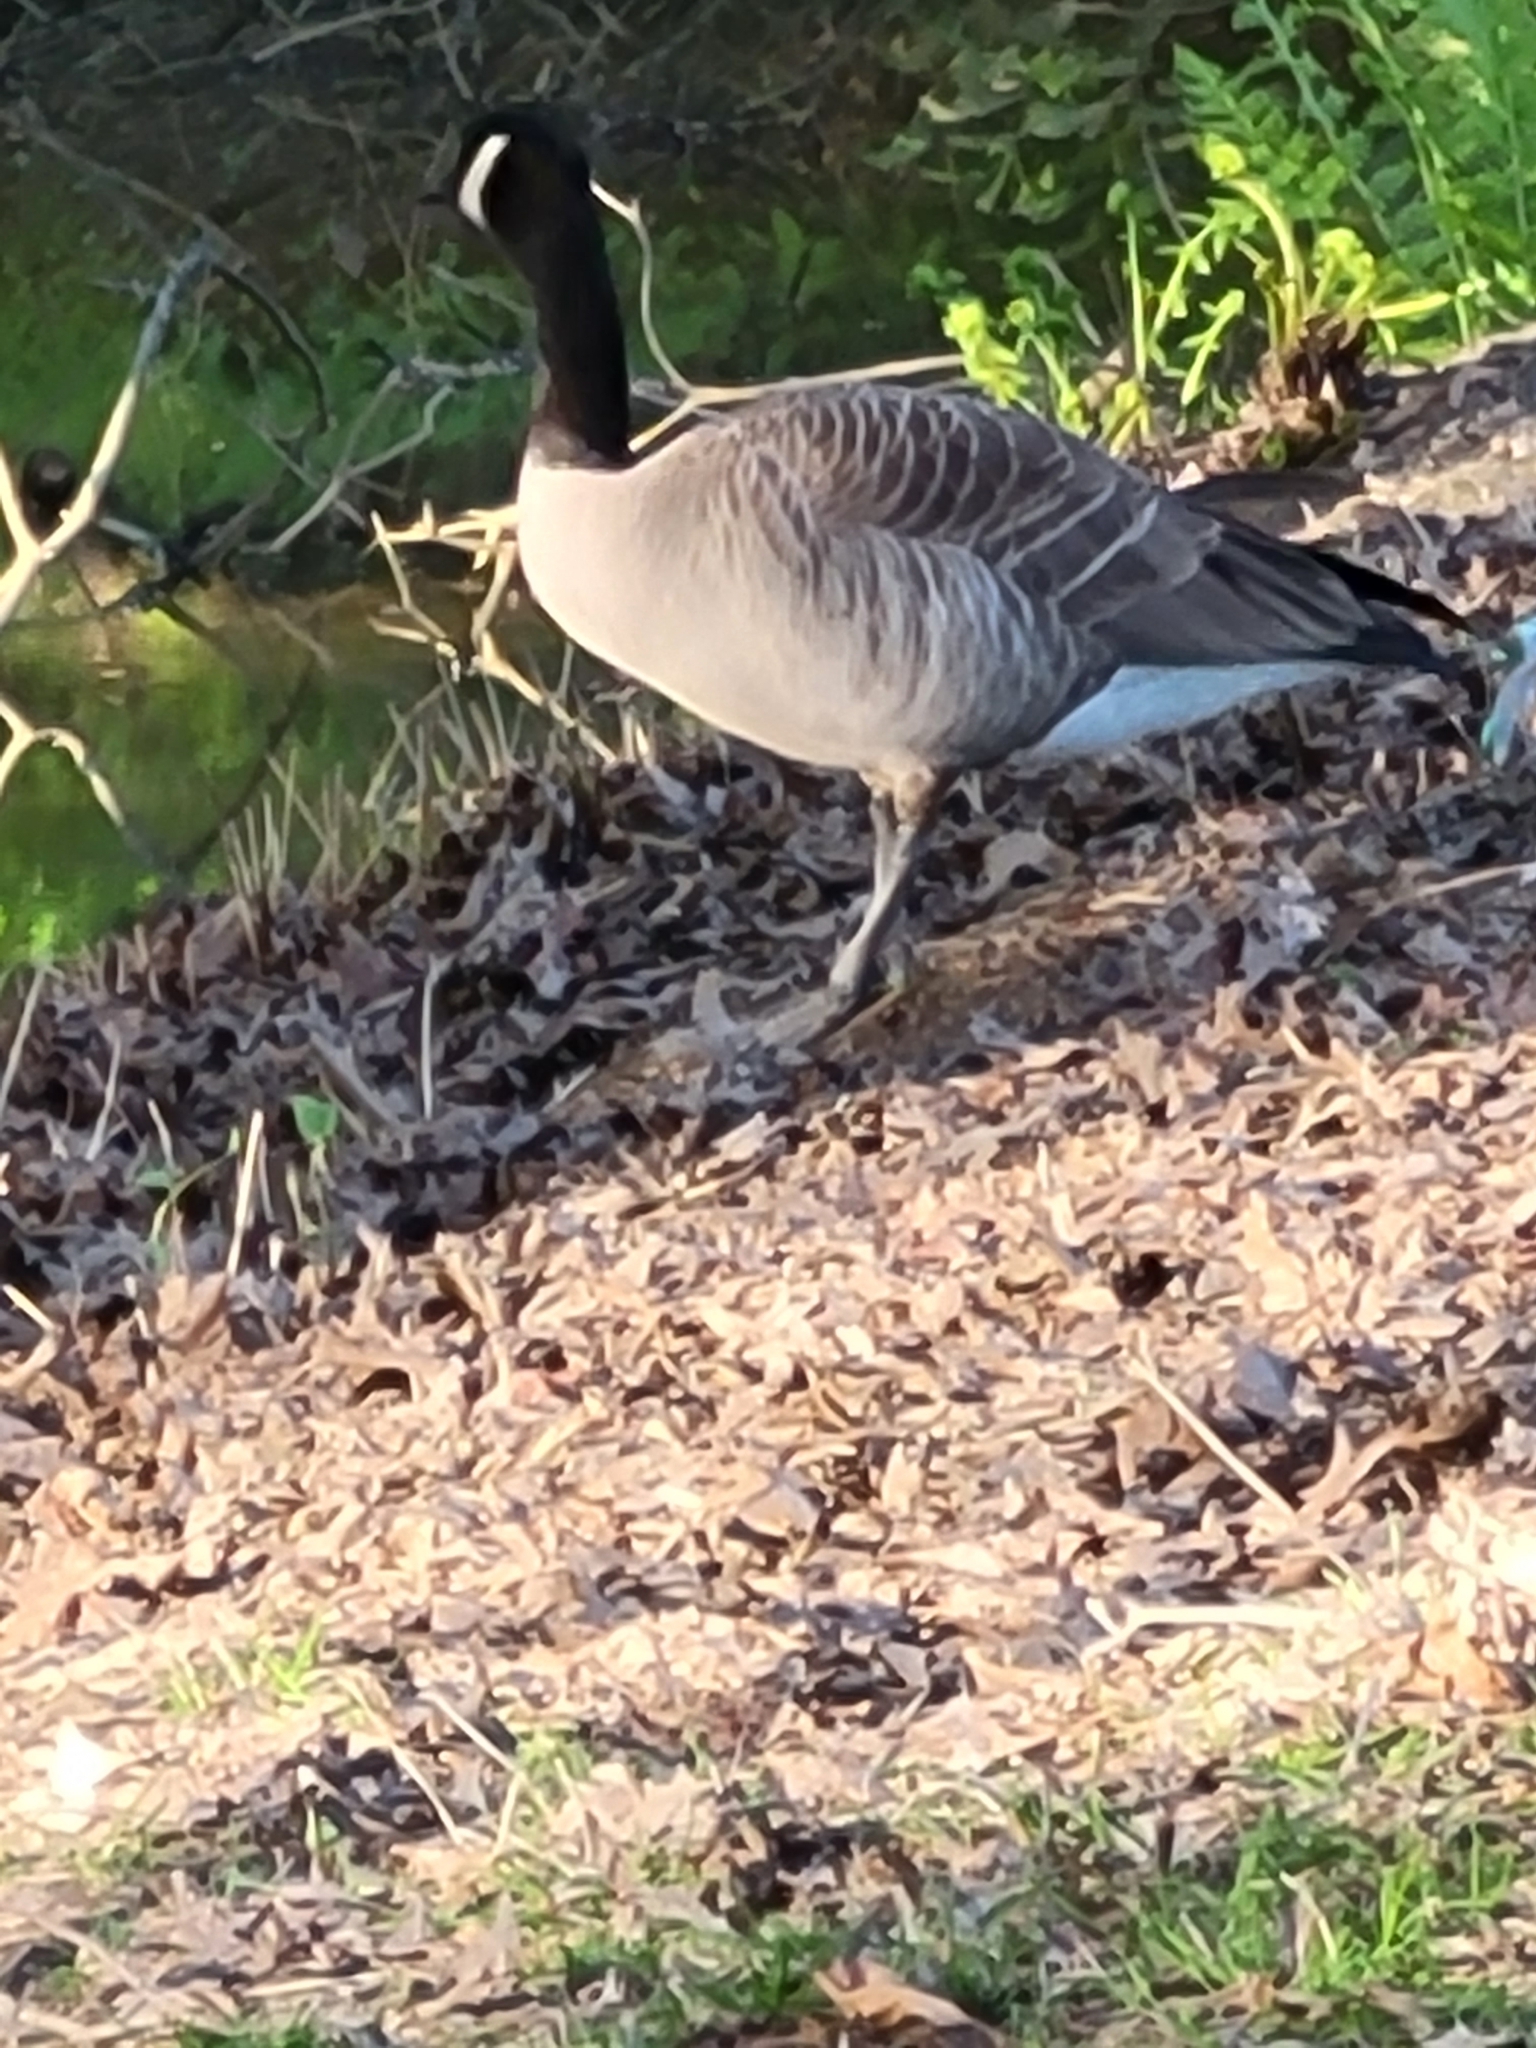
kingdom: Animalia
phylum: Chordata
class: Aves
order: Anseriformes
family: Anatidae
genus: Branta
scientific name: Branta canadensis
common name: Canada goose
